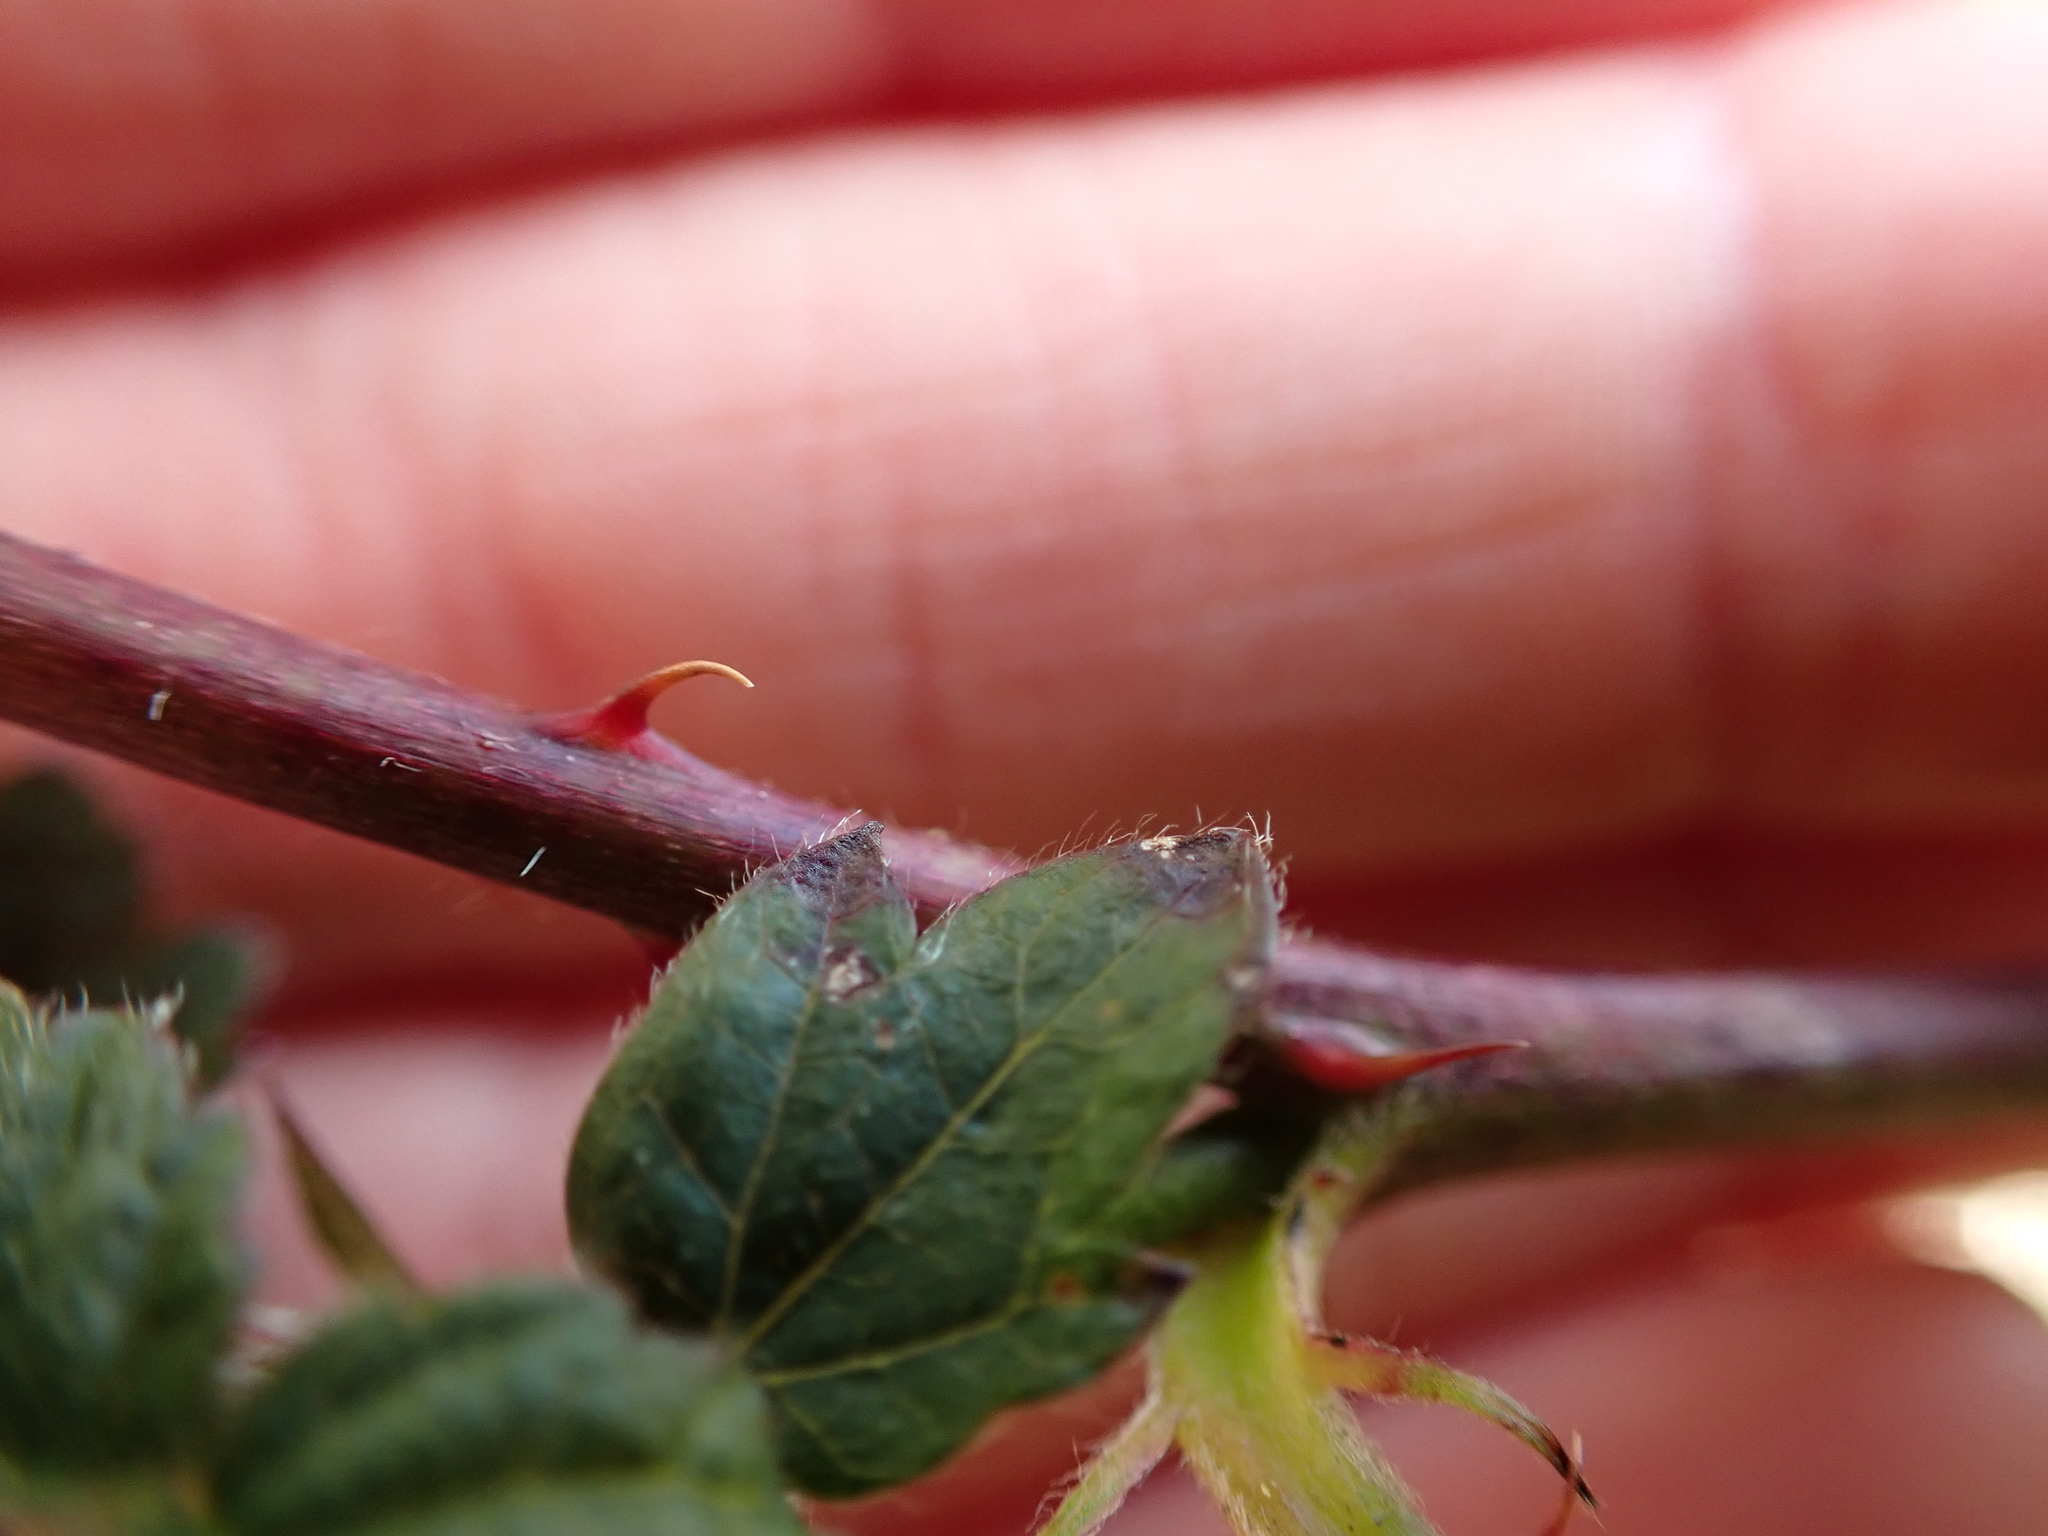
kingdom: Plantae
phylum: Tracheophyta
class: Magnoliopsida
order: Rosales
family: Rosaceae
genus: Rubus
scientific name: Rubus ursinus
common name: Pacific blackberry
